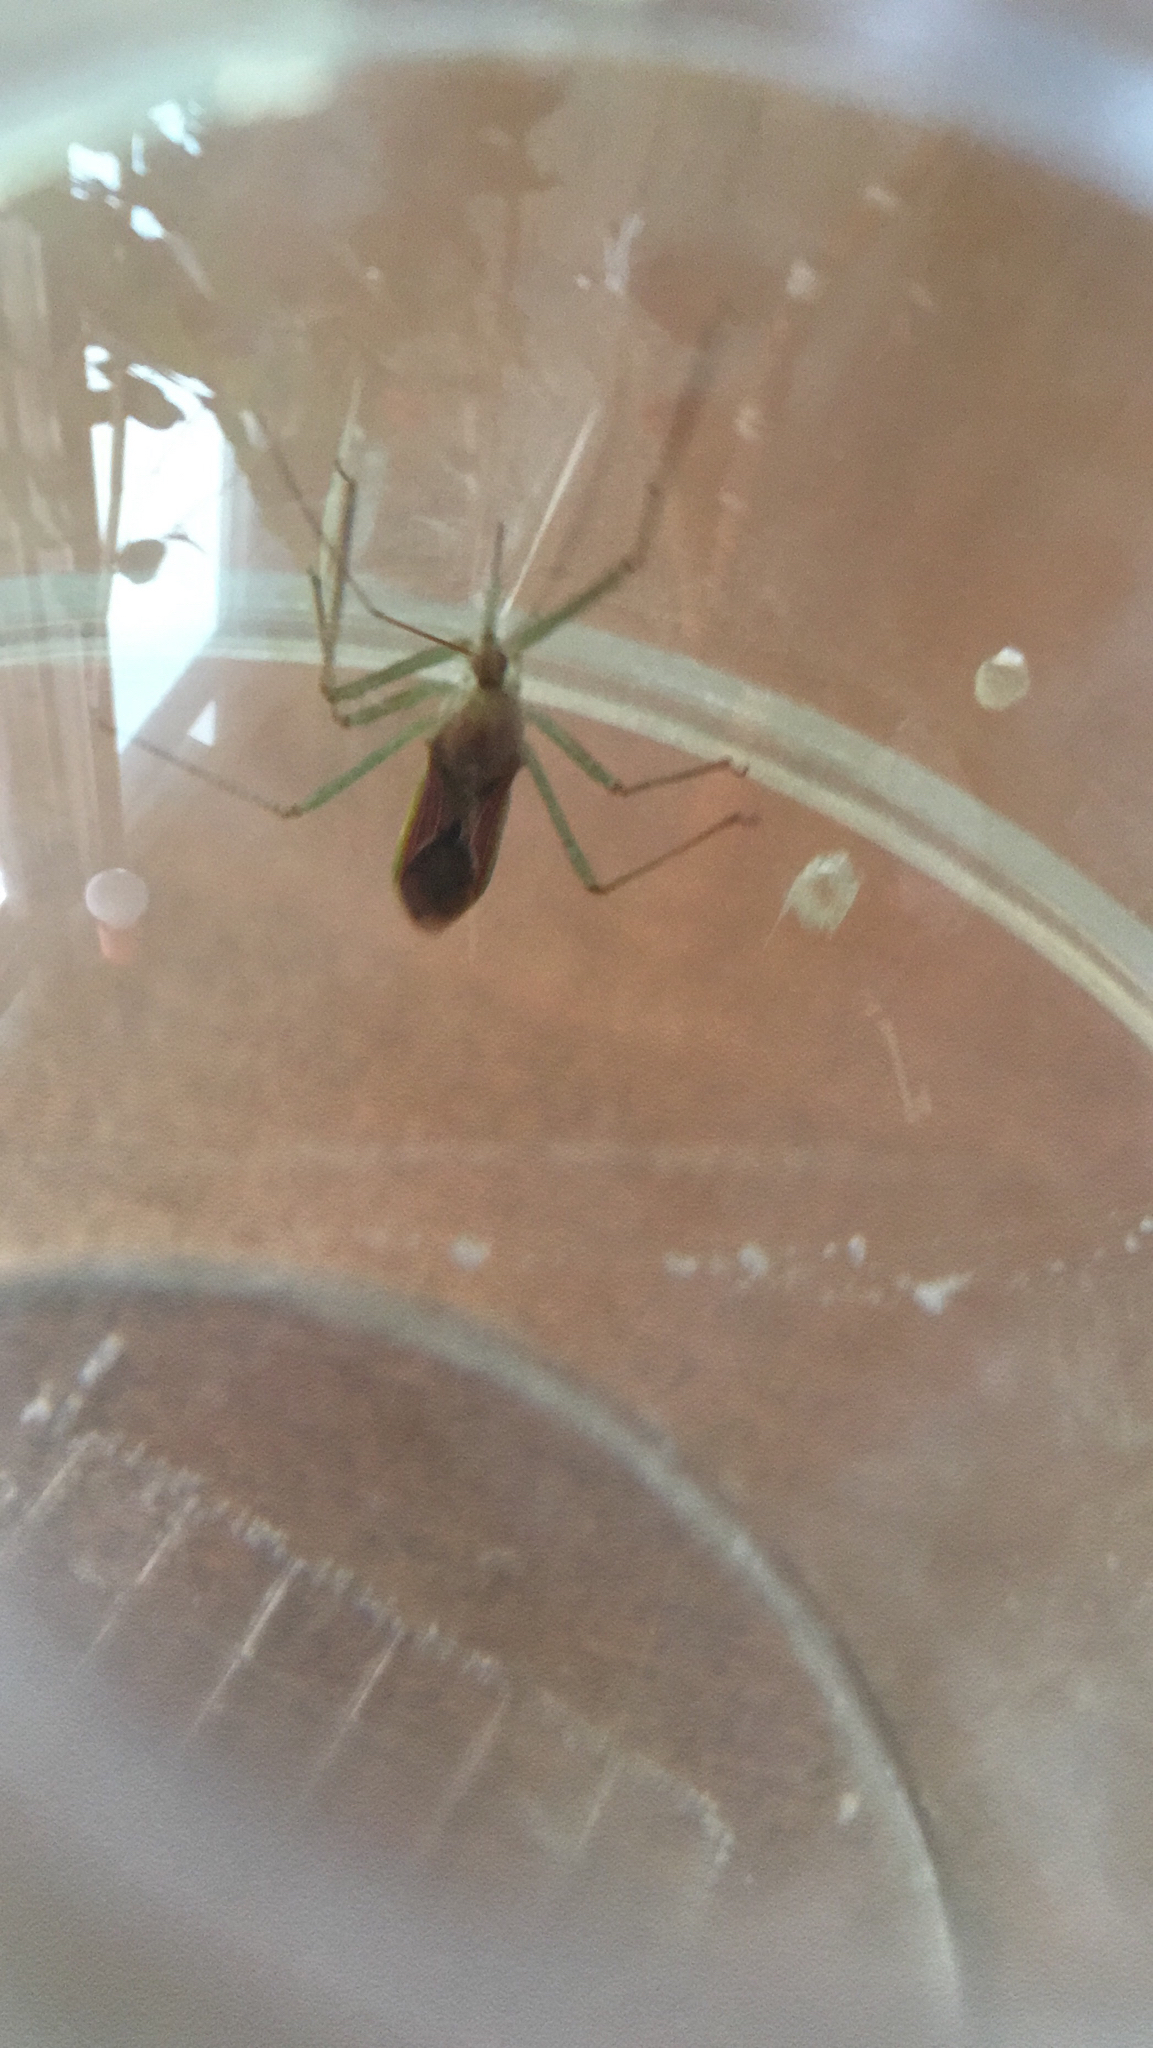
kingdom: Animalia
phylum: Arthropoda
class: Insecta
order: Hemiptera
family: Reduviidae
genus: Zelus
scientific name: Zelus renardii
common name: Assassin bug
